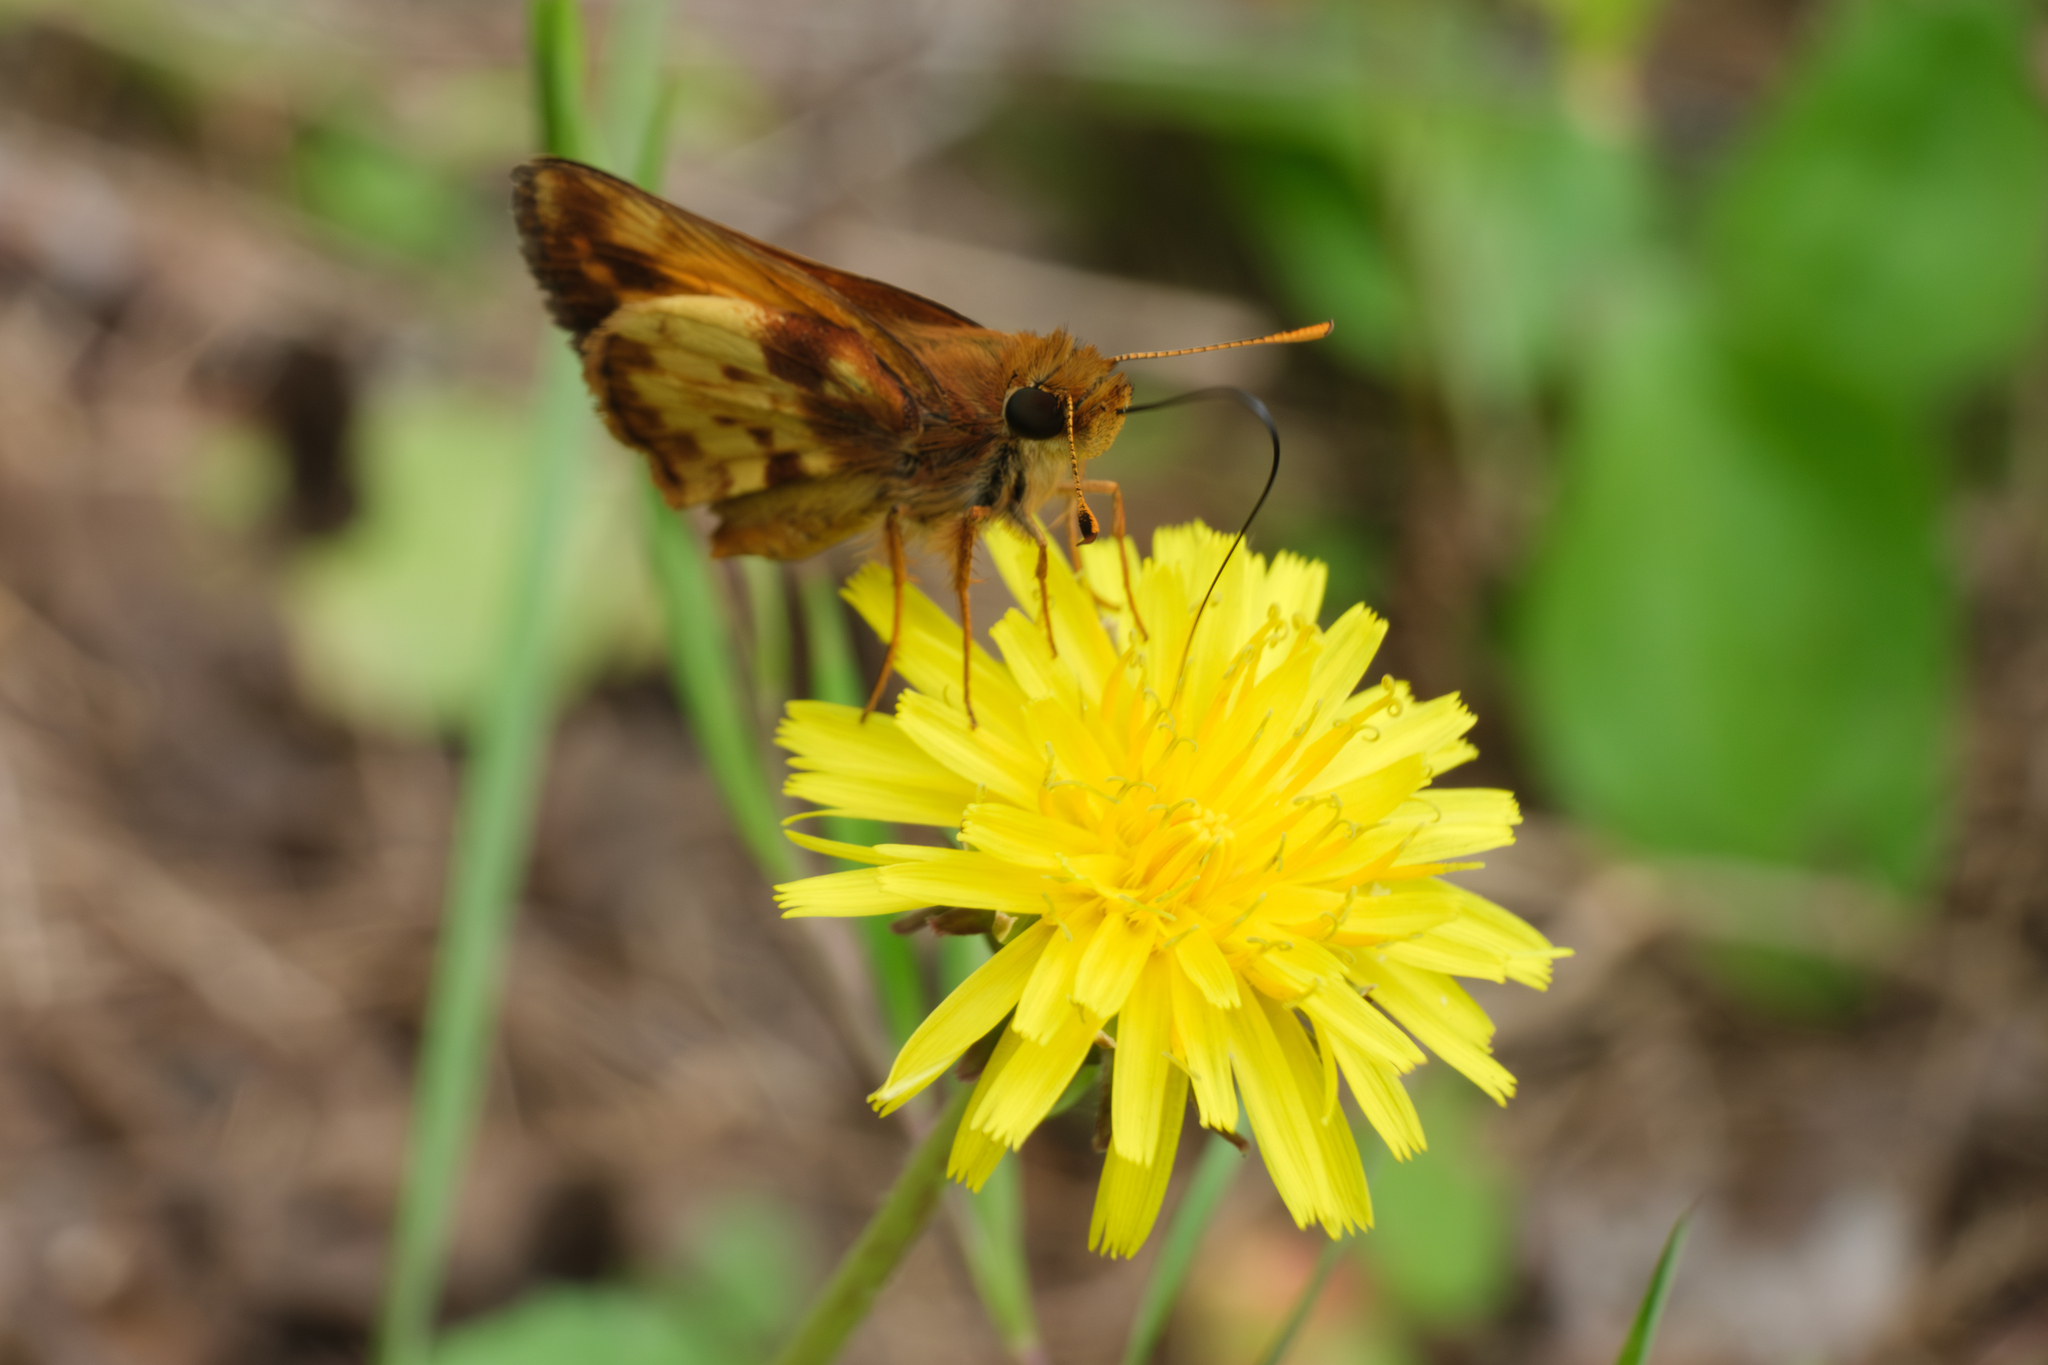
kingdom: Animalia
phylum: Arthropoda
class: Insecta
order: Lepidoptera
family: Hesperiidae
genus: Lon
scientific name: Lon zabulon
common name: Zabulon skipper
